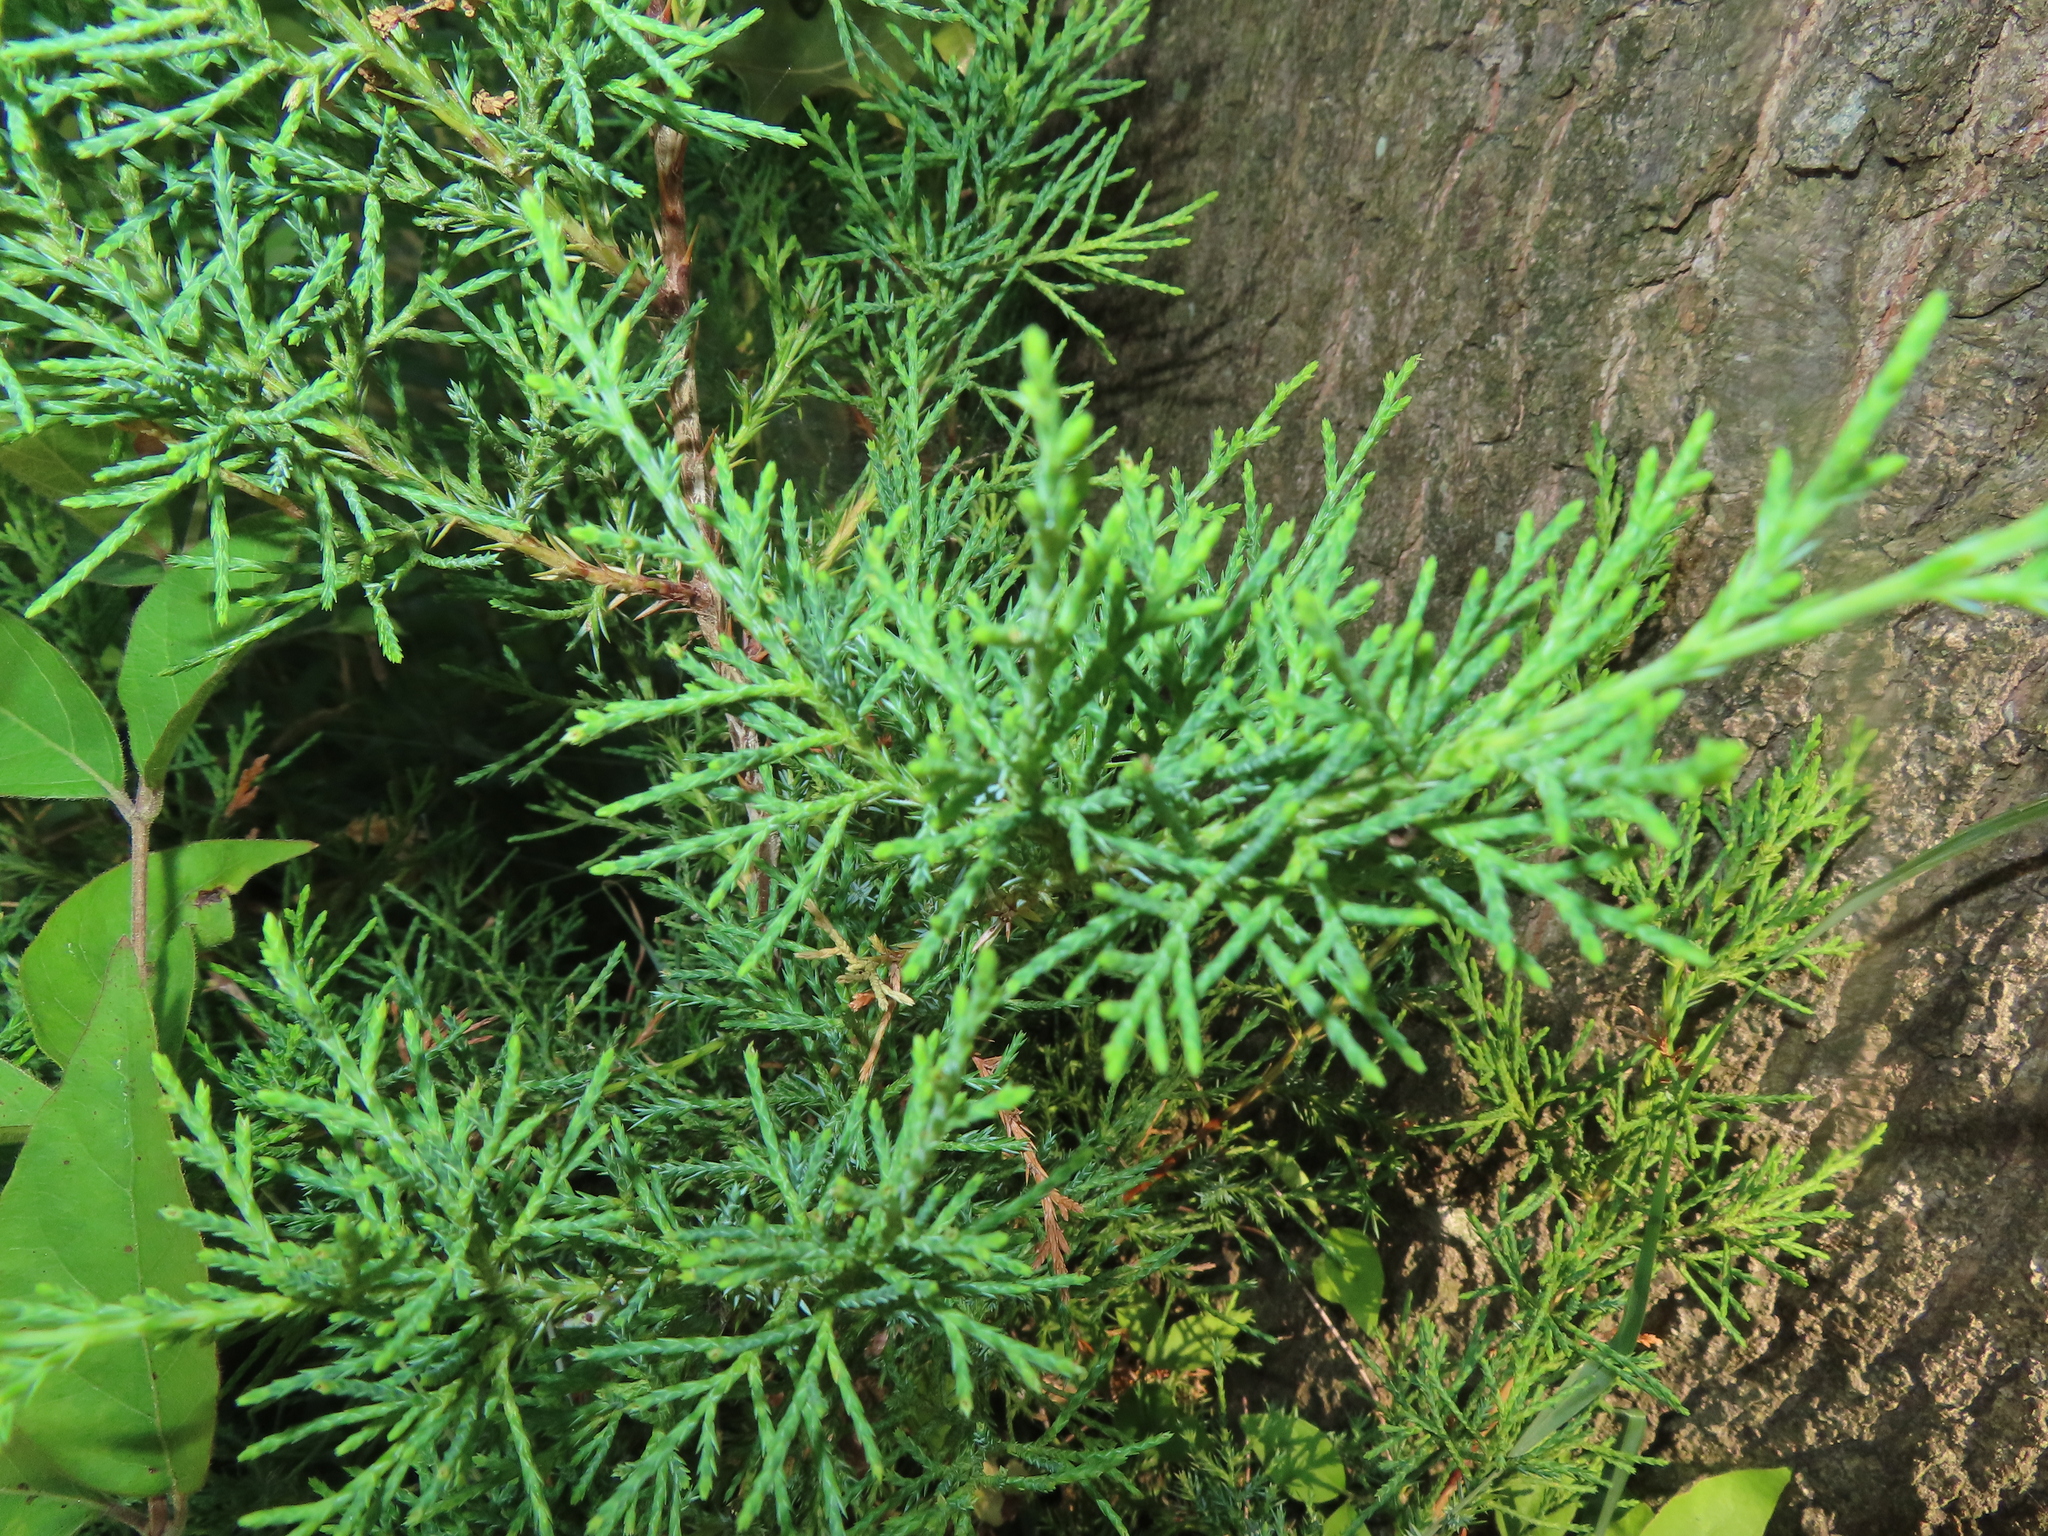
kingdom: Plantae
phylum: Tracheophyta
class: Pinopsida
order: Pinales
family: Cupressaceae
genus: Juniperus
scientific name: Juniperus virginiana
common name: Red juniper
